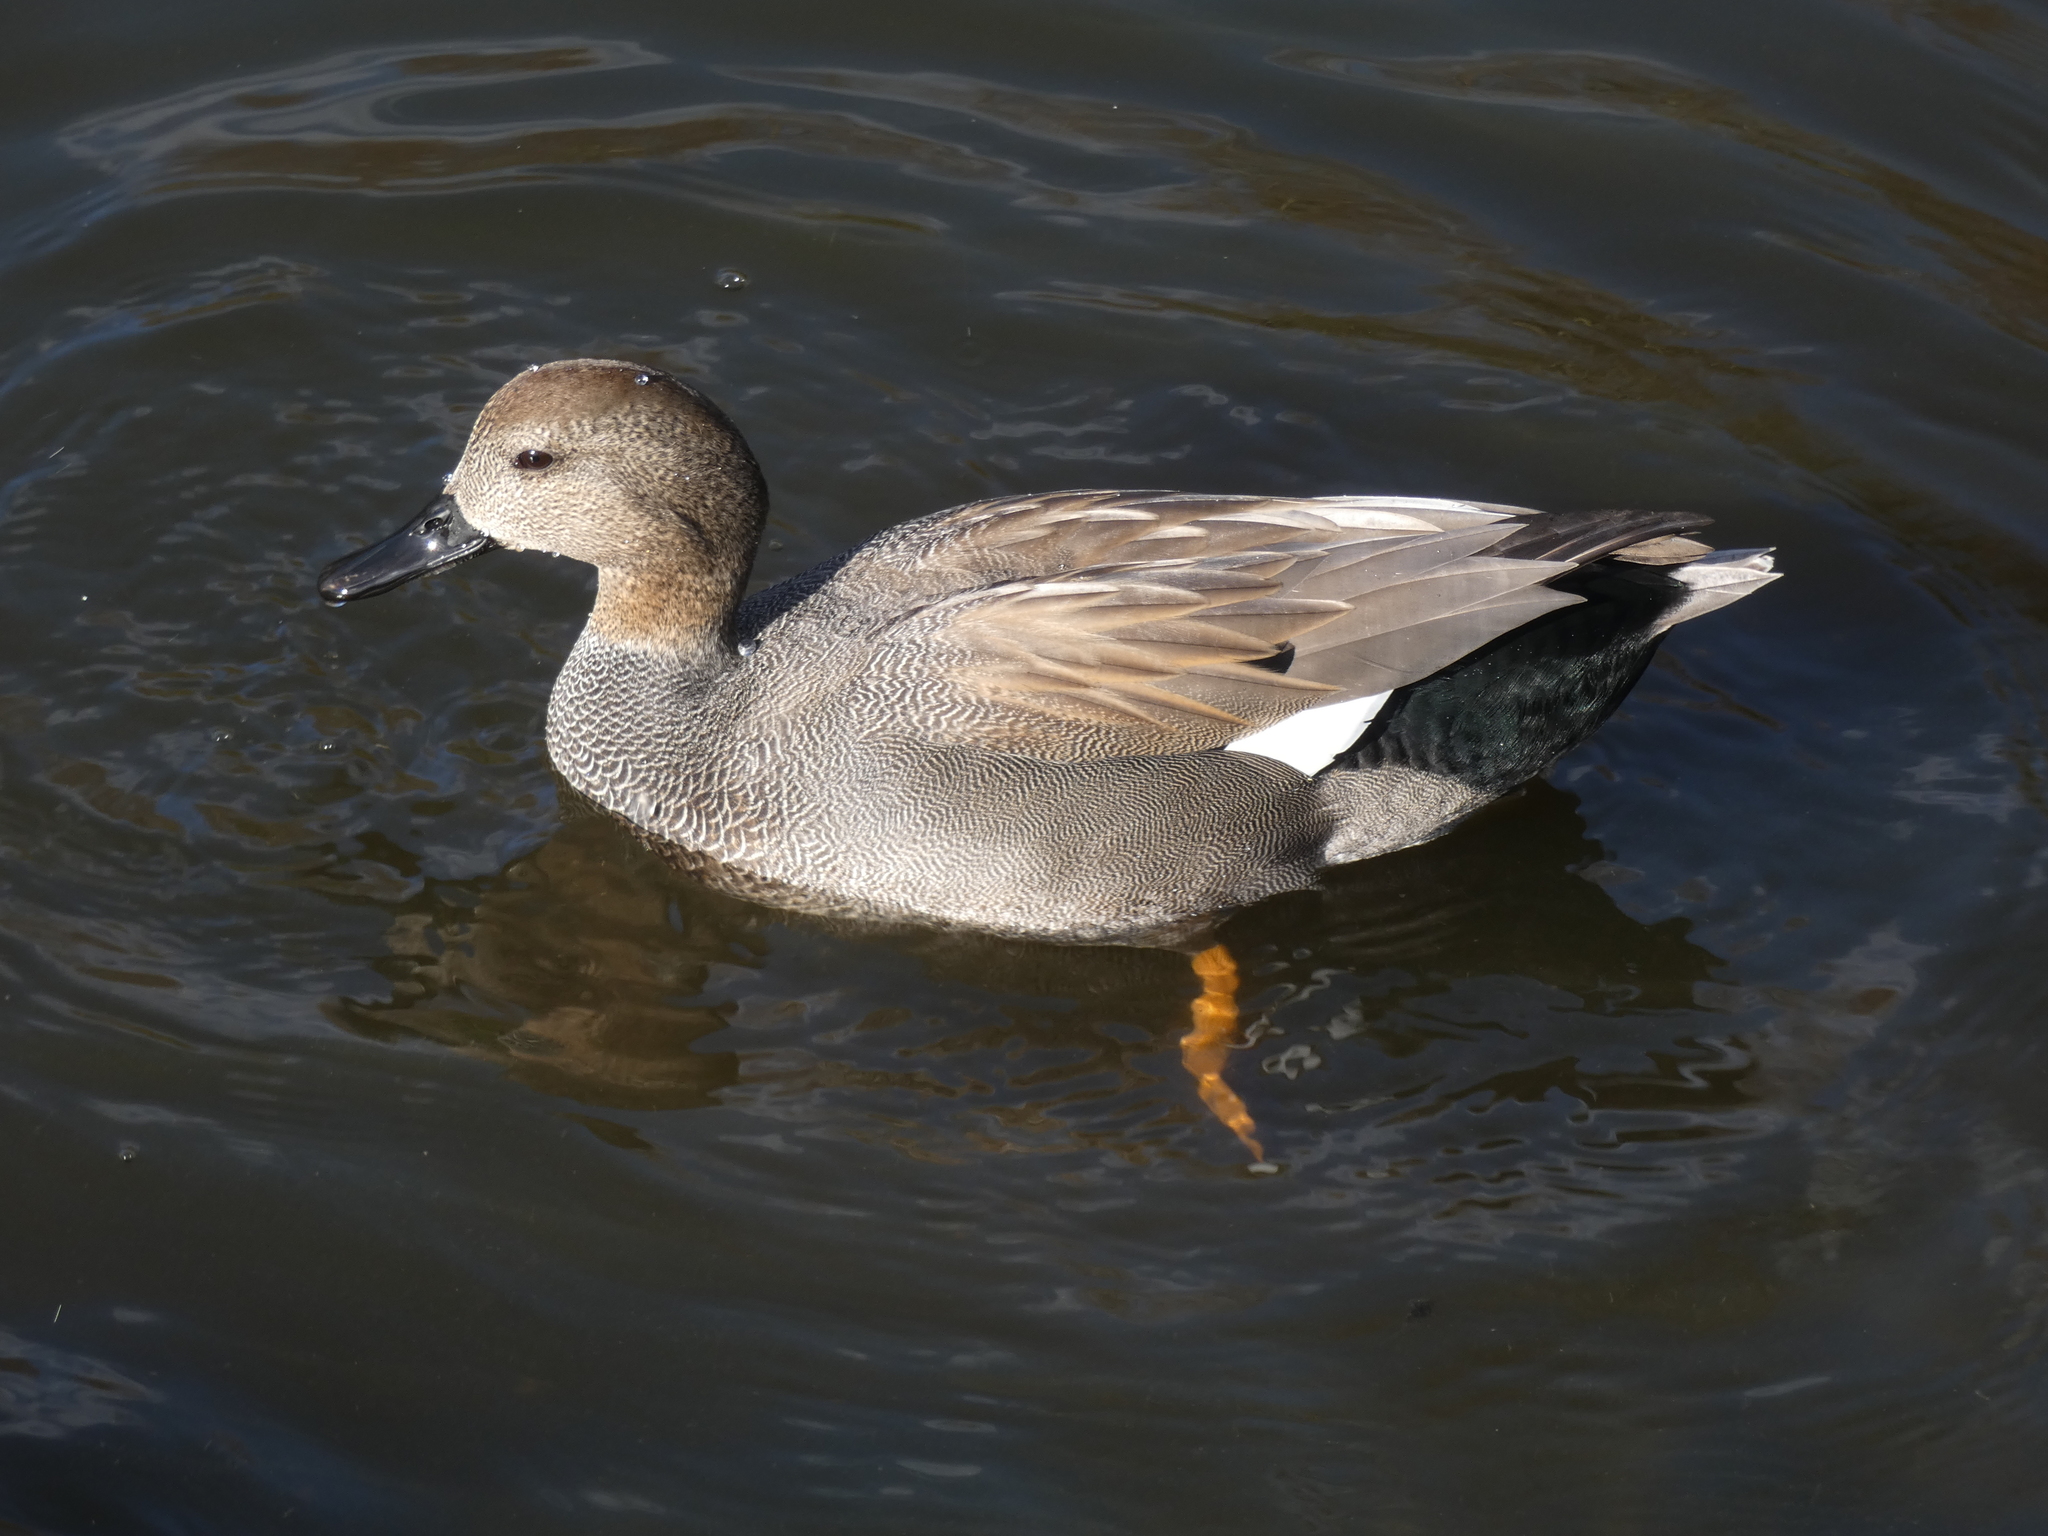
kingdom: Animalia
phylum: Chordata
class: Aves
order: Anseriformes
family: Anatidae
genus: Mareca
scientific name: Mareca strepera
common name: Gadwall
